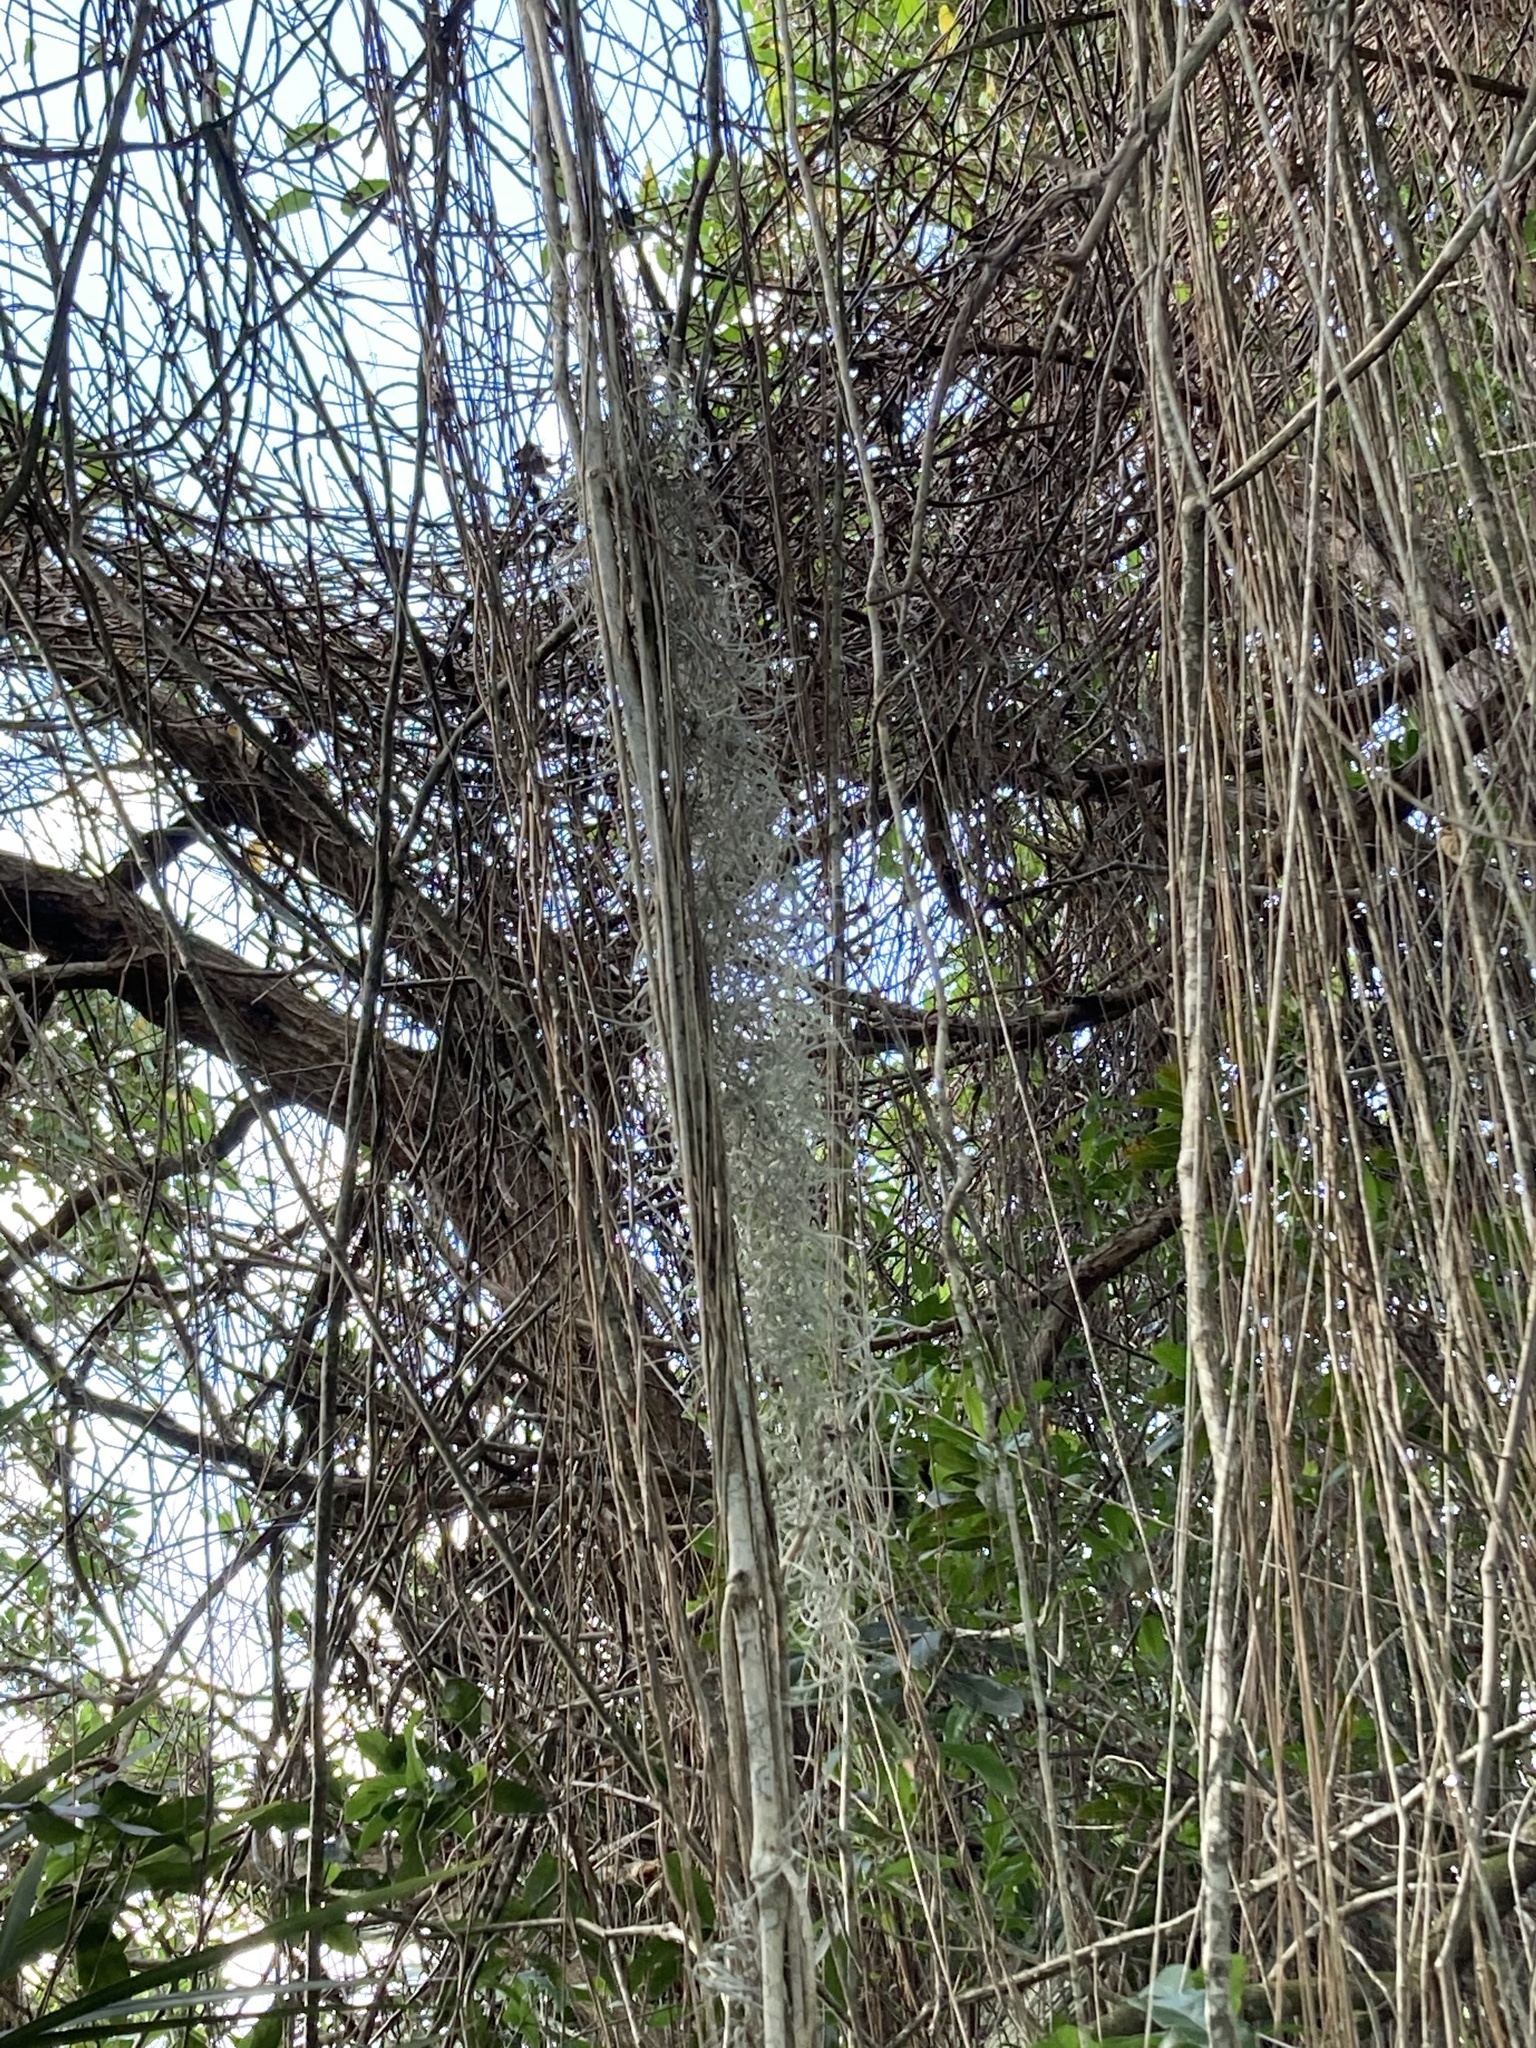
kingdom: Plantae
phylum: Tracheophyta
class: Liliopsida
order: Poales
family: Bromeliaceae
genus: Tillandsia
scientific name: Tillandsia usneoides
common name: Spanish moss
